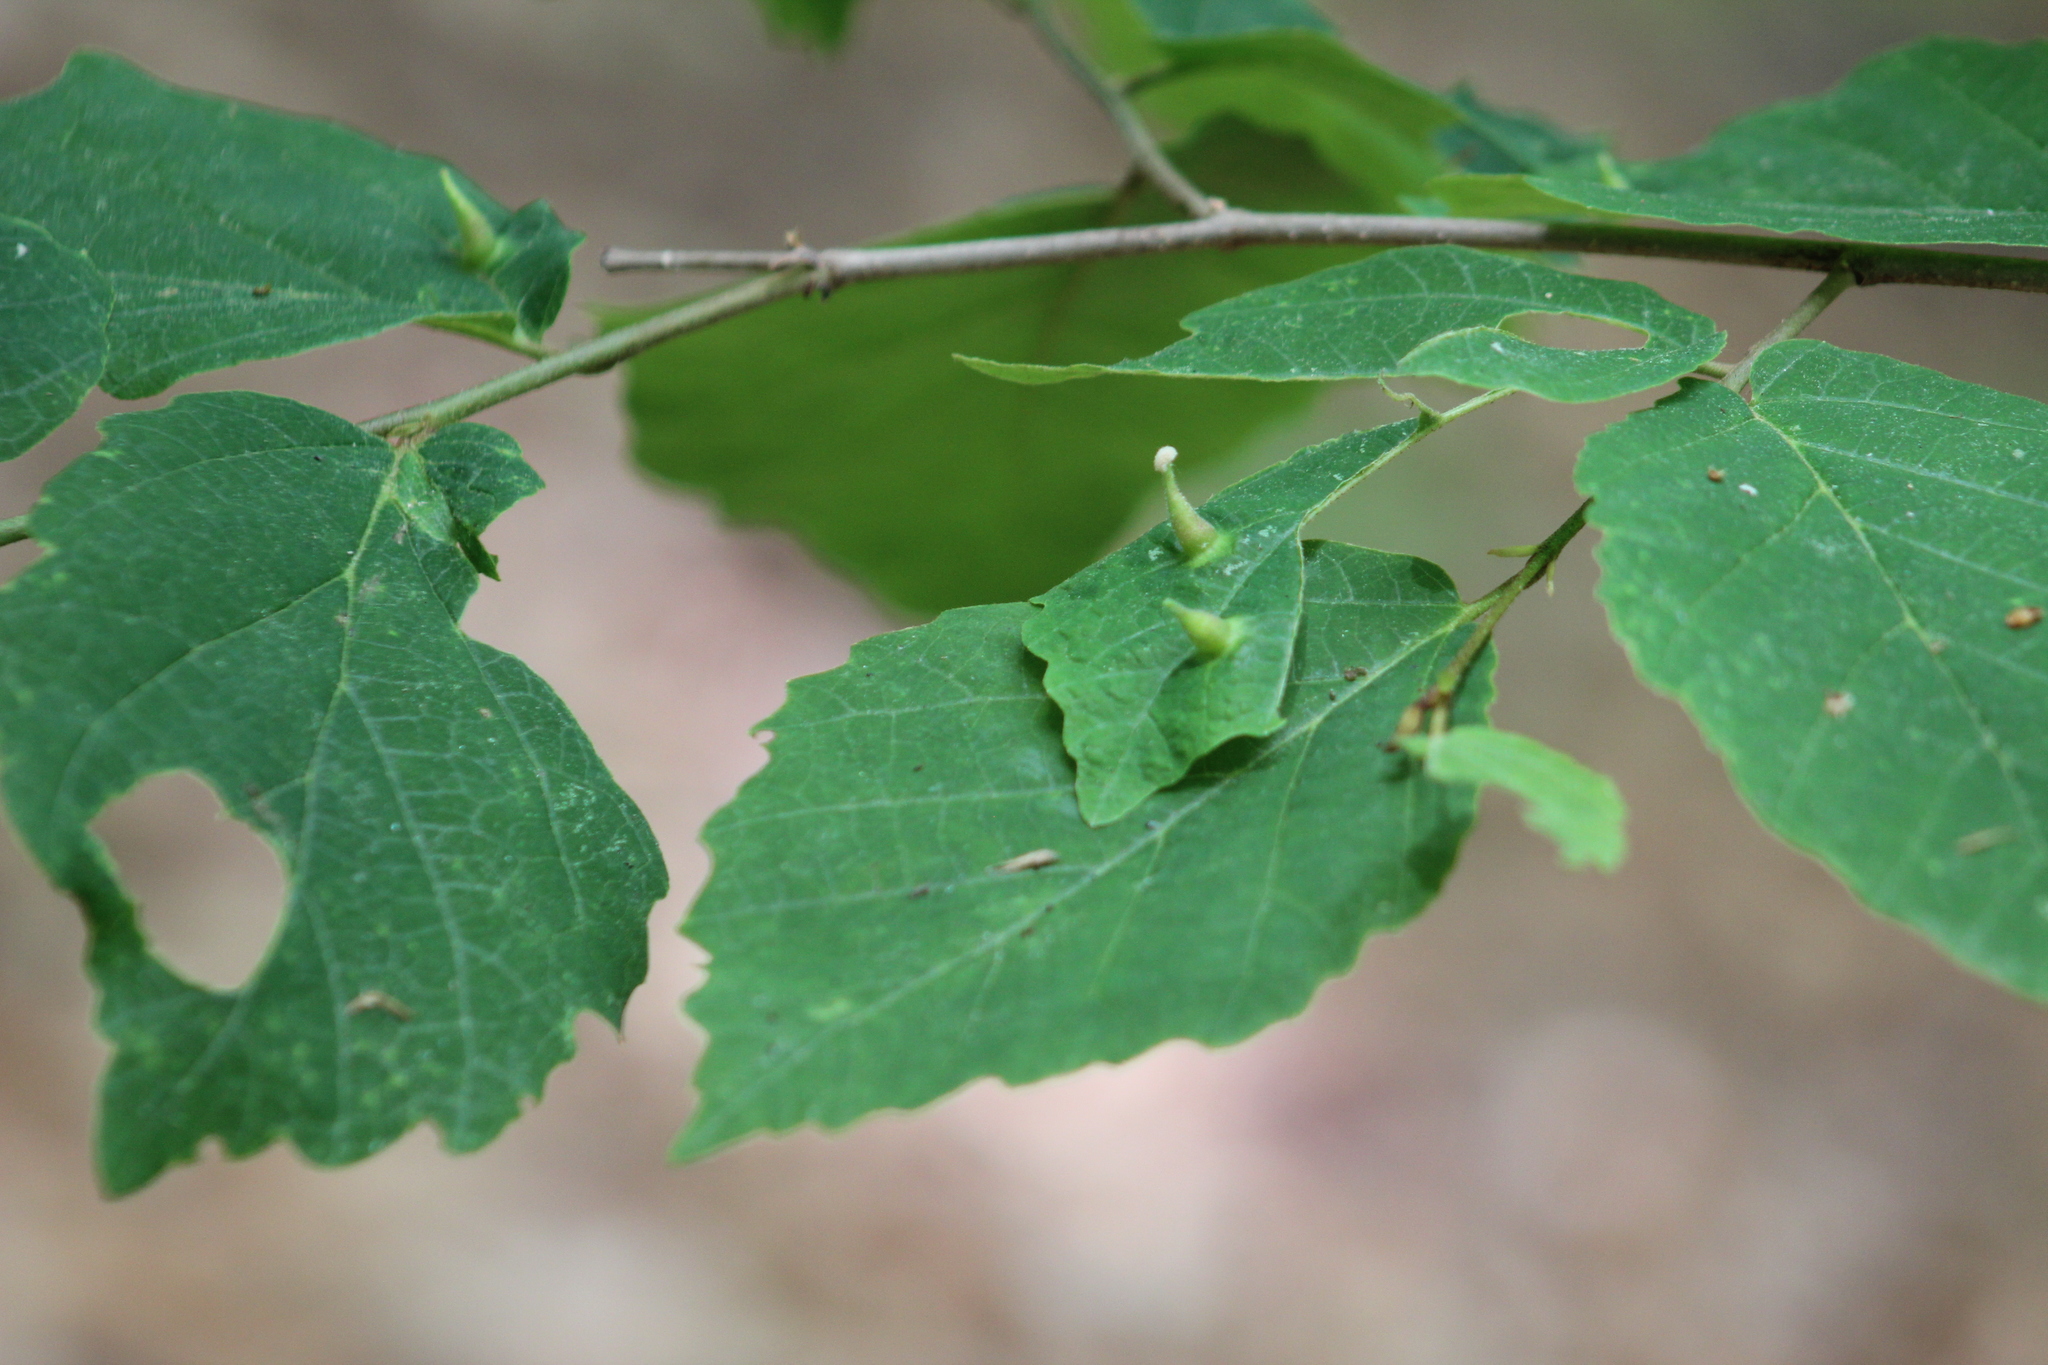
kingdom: Animalia
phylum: Arthropoda
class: Insecta
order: Hemiptera
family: Aphididae
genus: Hormaphis
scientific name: Hormaphis hamamelidis
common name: Witch-hazel cone gall aphid
